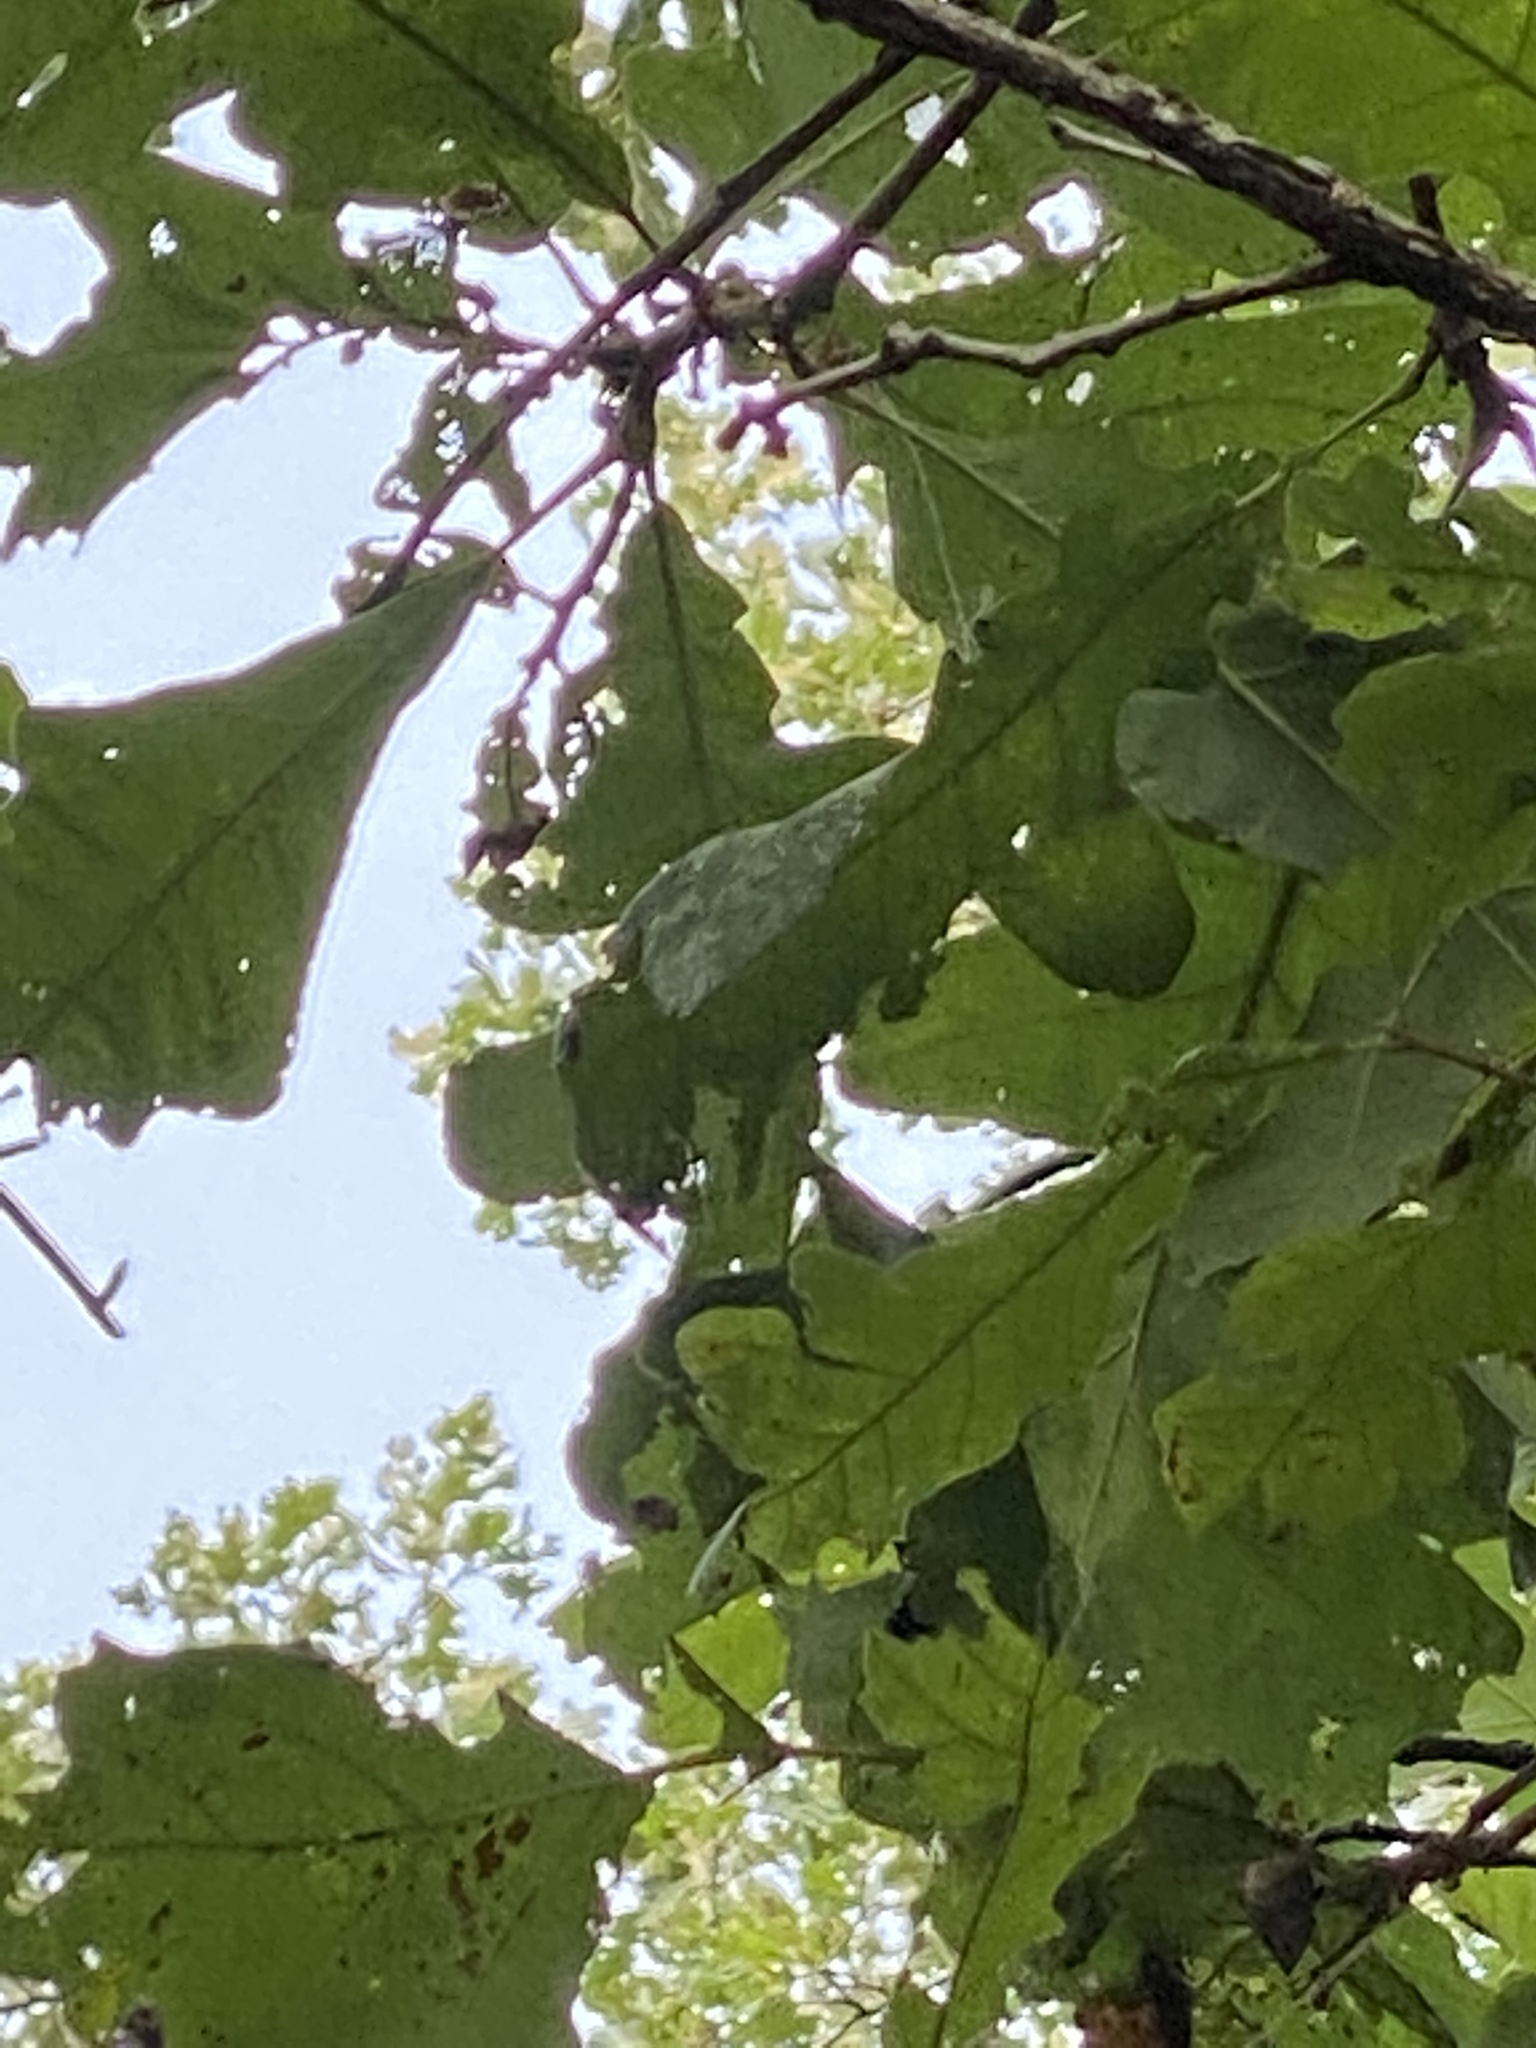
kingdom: Plantae
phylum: Tracheophyta
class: Magnoliopsida
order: Fagales
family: Fagaceae
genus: Quercus
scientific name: Quercus macrocarpa
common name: Bur oak
